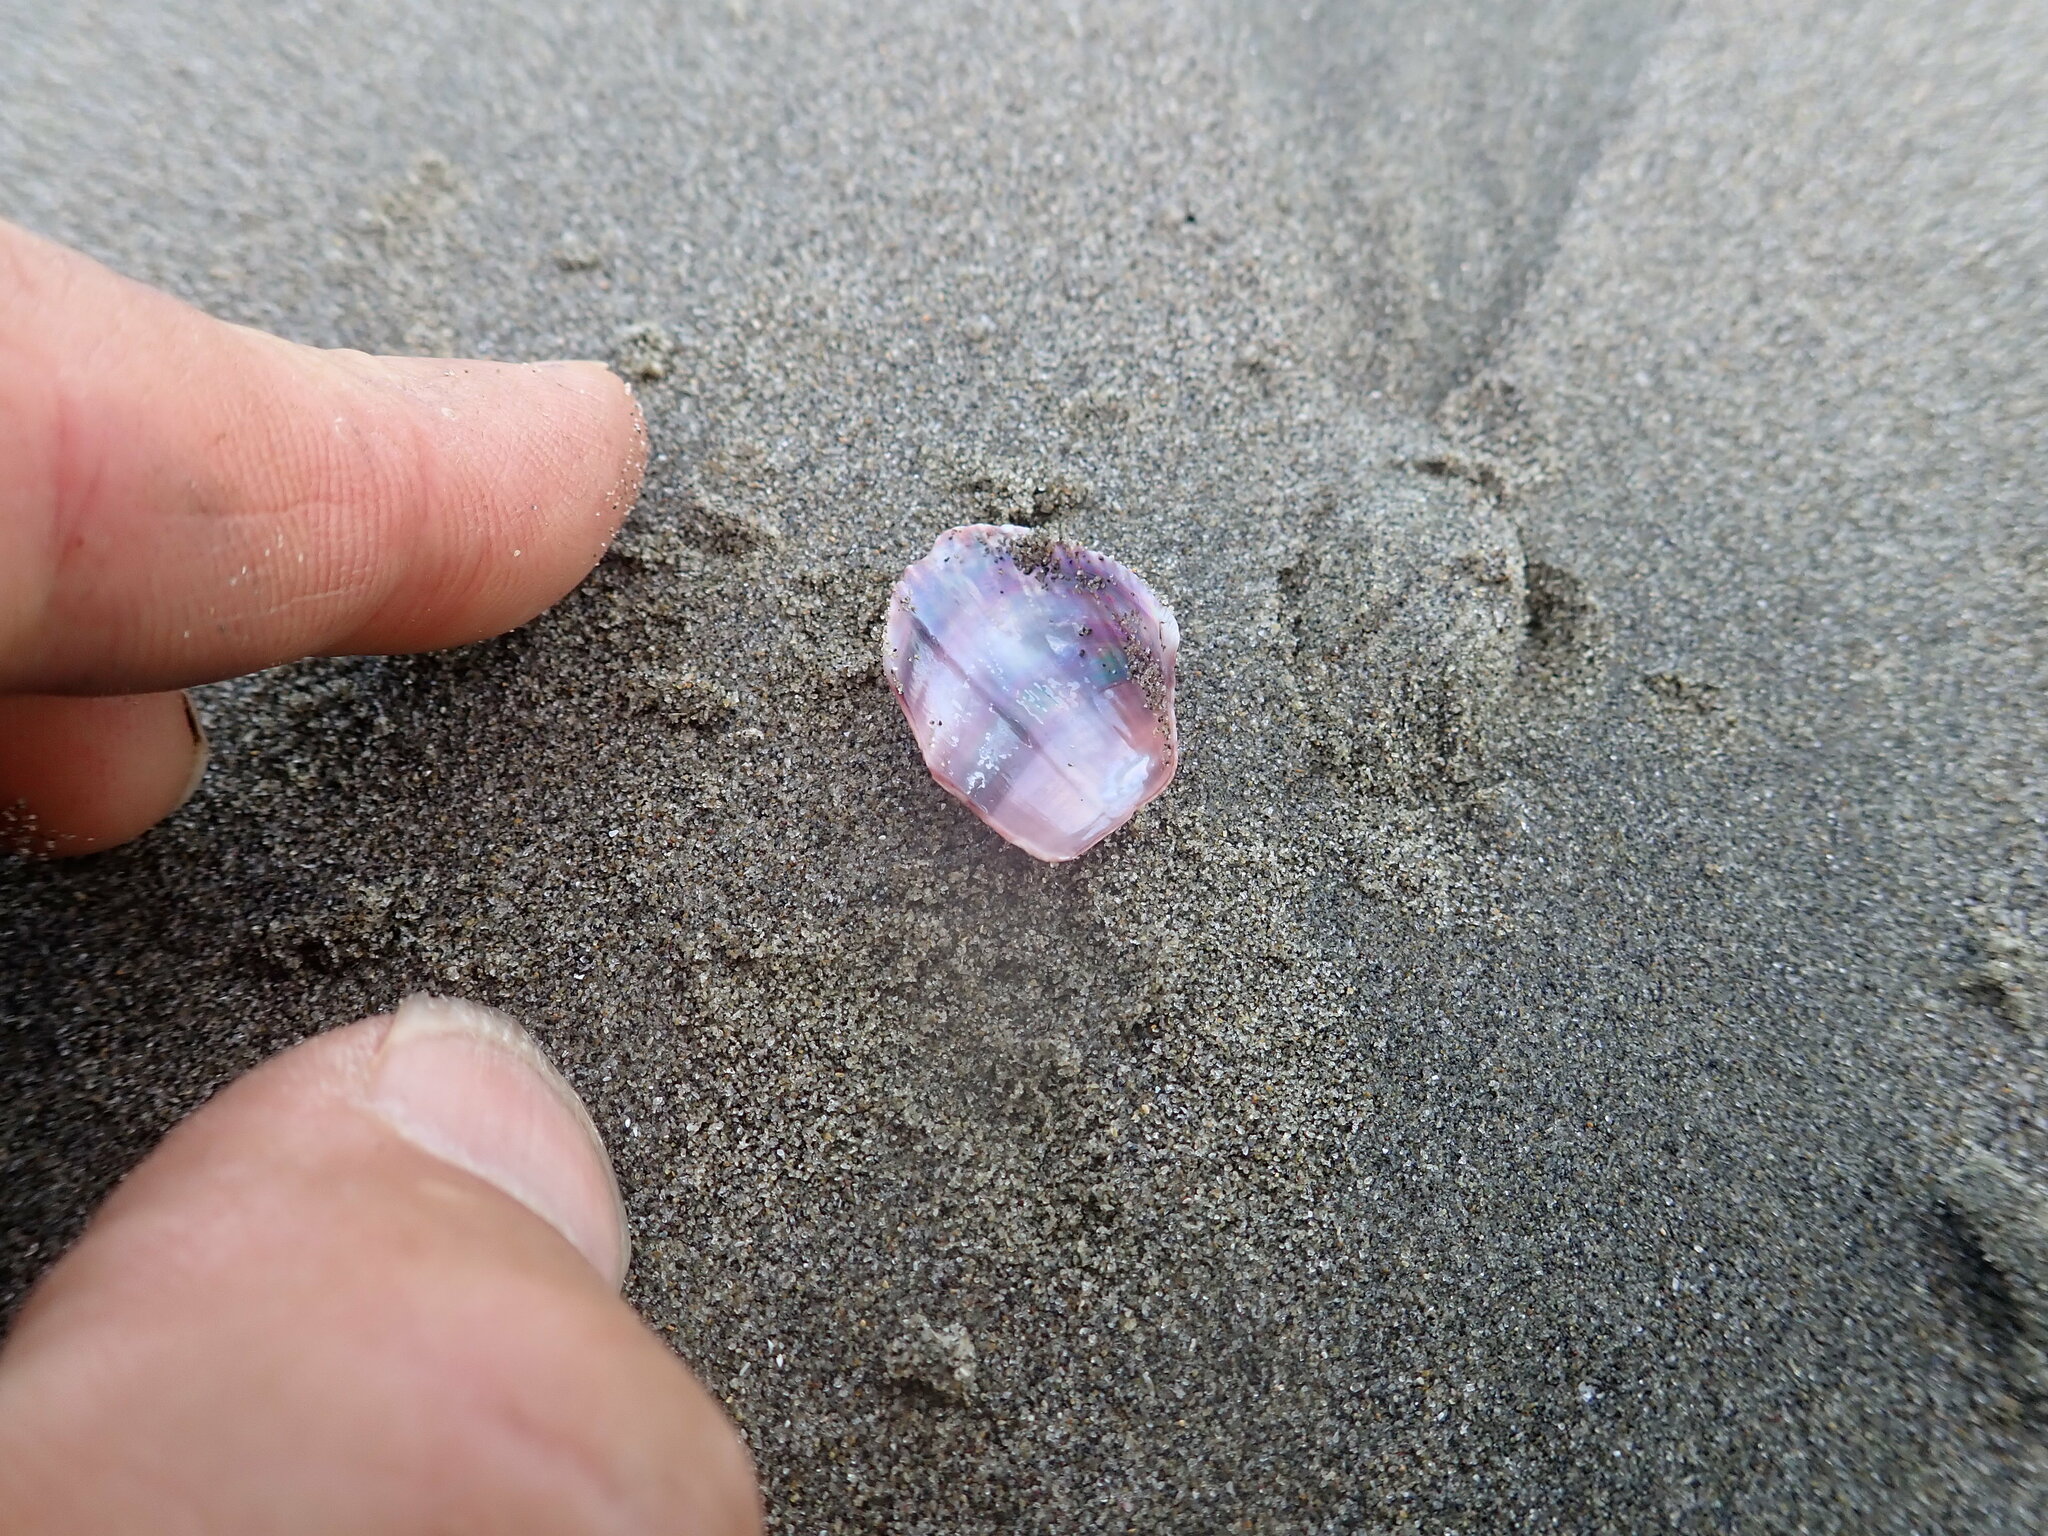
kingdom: Animalia
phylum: Mollusca
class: Bivalvia
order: Mytilida
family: Mytilidae
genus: Musculus
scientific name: Musculus impactus
